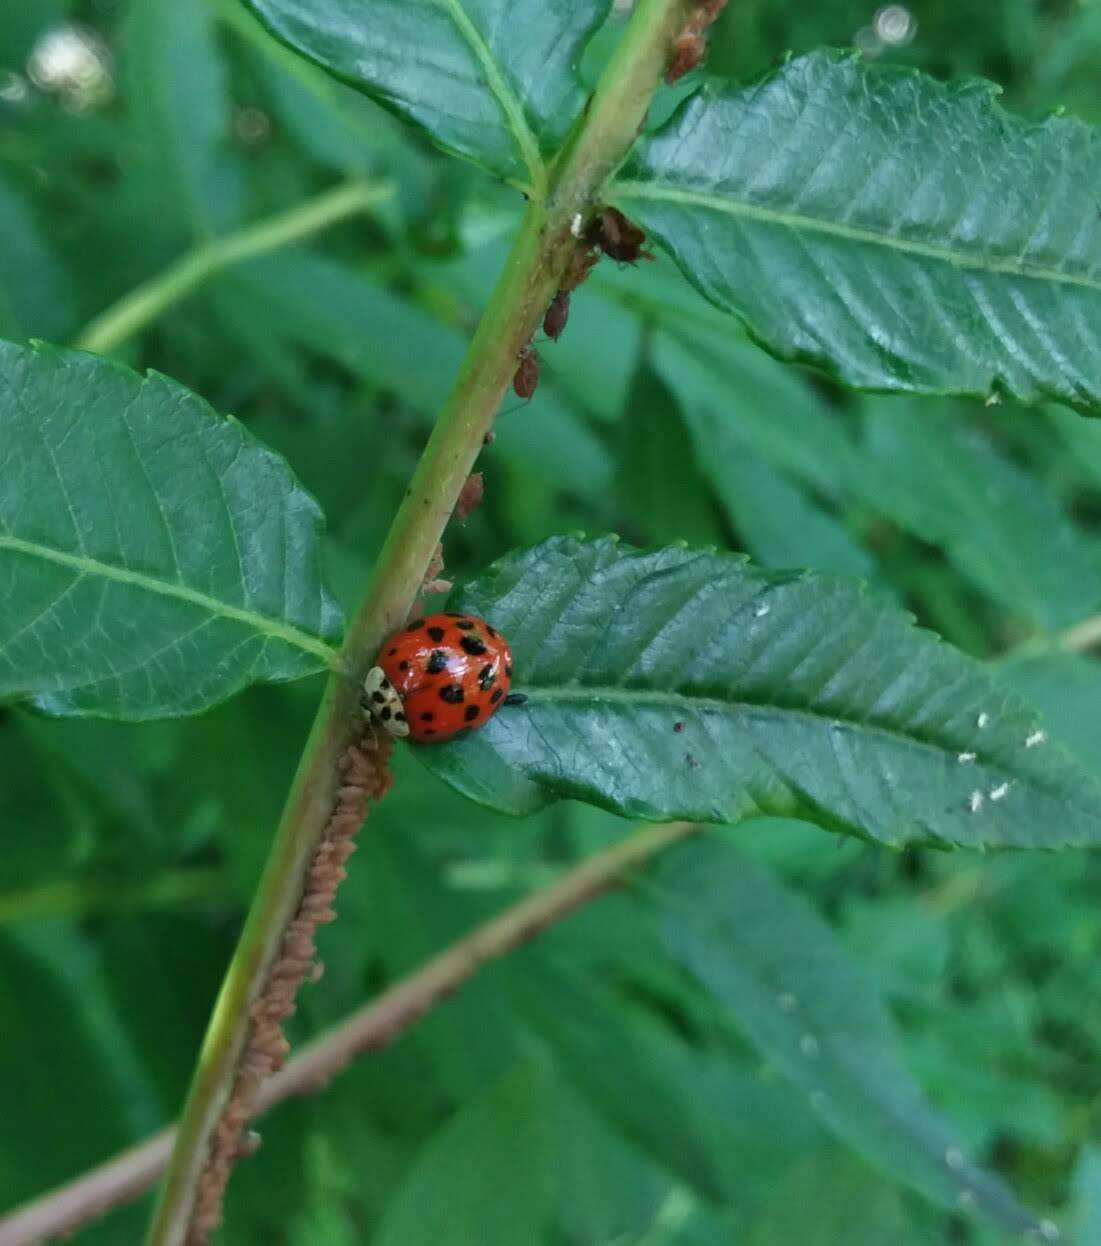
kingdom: Animalia
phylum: Arthropoda
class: Insecta
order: Coleoptera
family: Coccinellidae
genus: Harmonia
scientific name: Harmonia axyridis
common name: Harlequin ladybird
